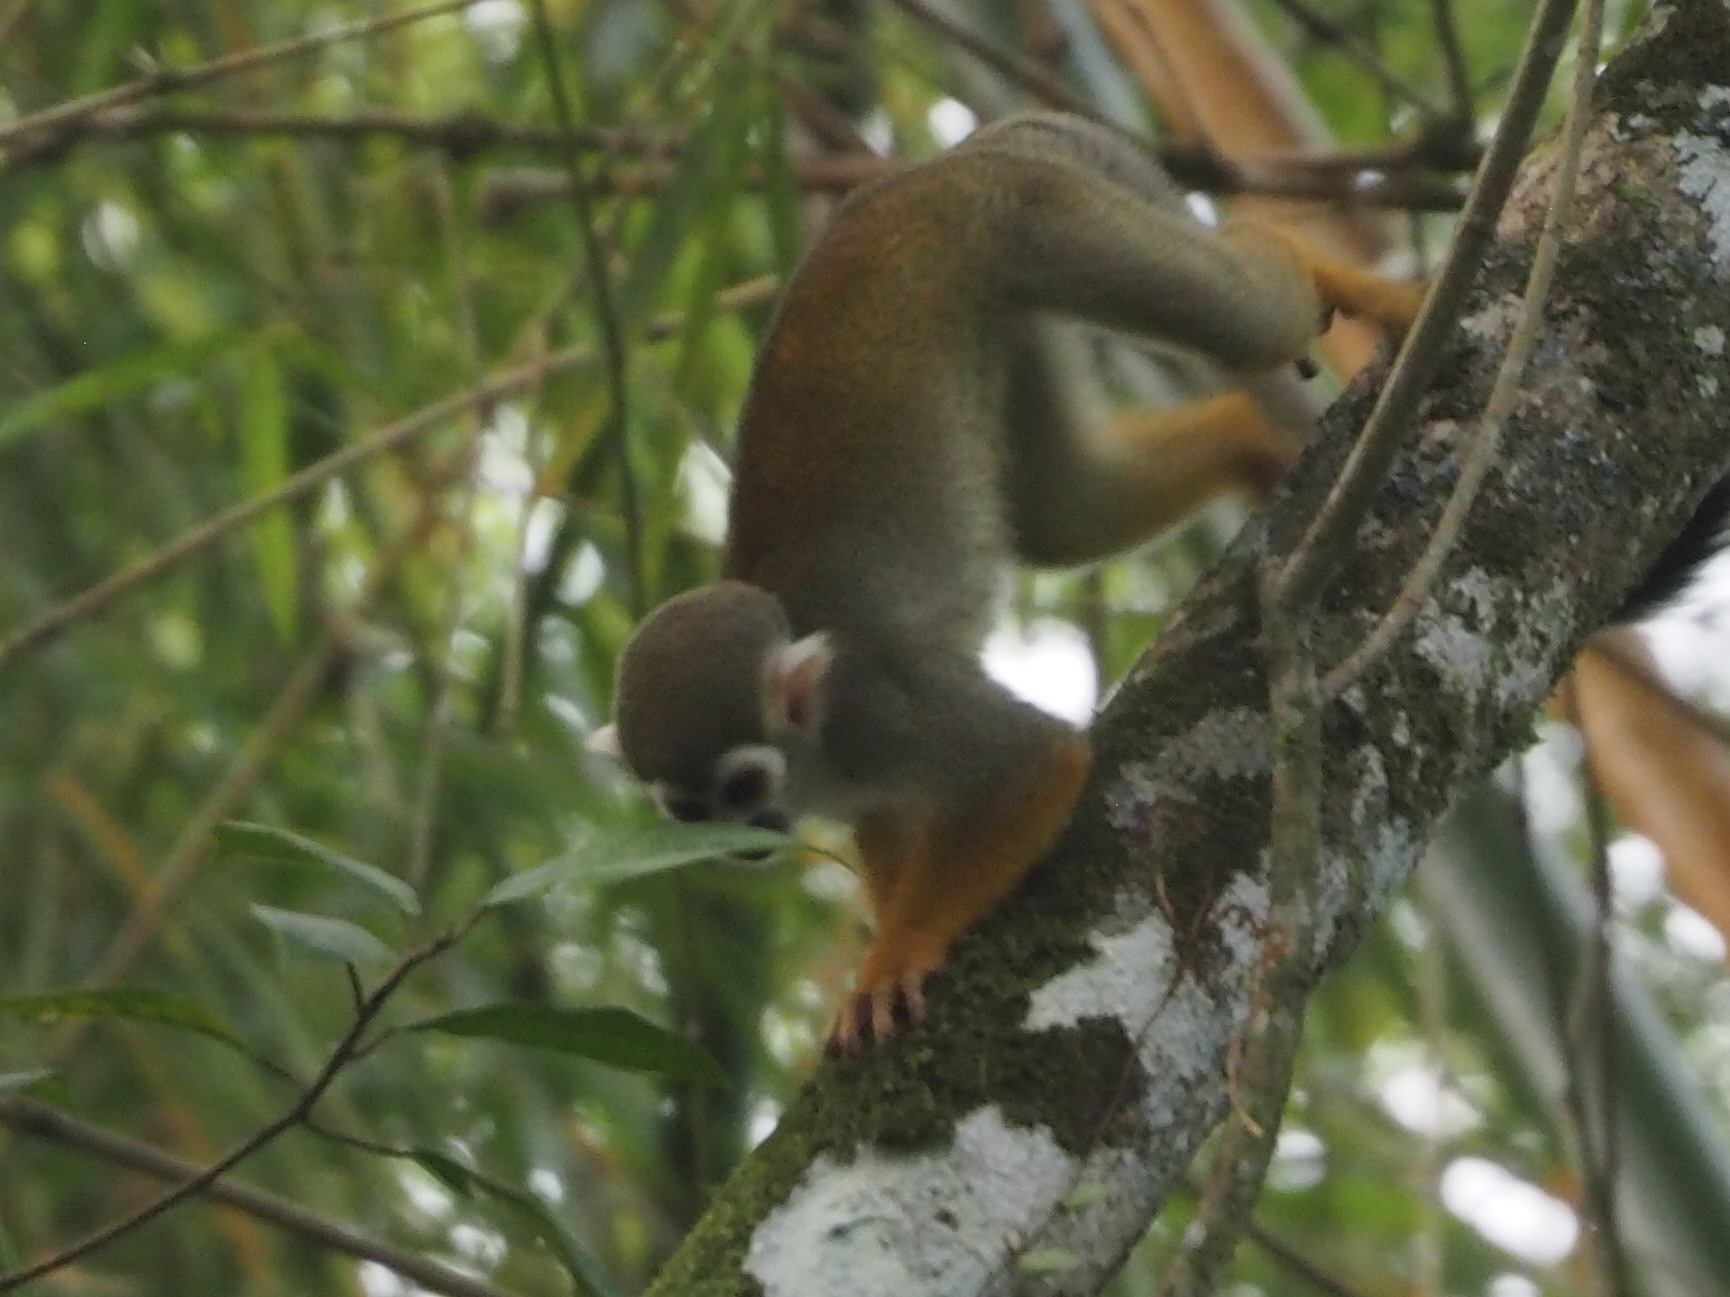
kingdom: Animalia
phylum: Chordata
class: Mammalia
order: Primates
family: Cebidae
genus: Saimiri
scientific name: Saimiri sciureus
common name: Common squirrel monkey
